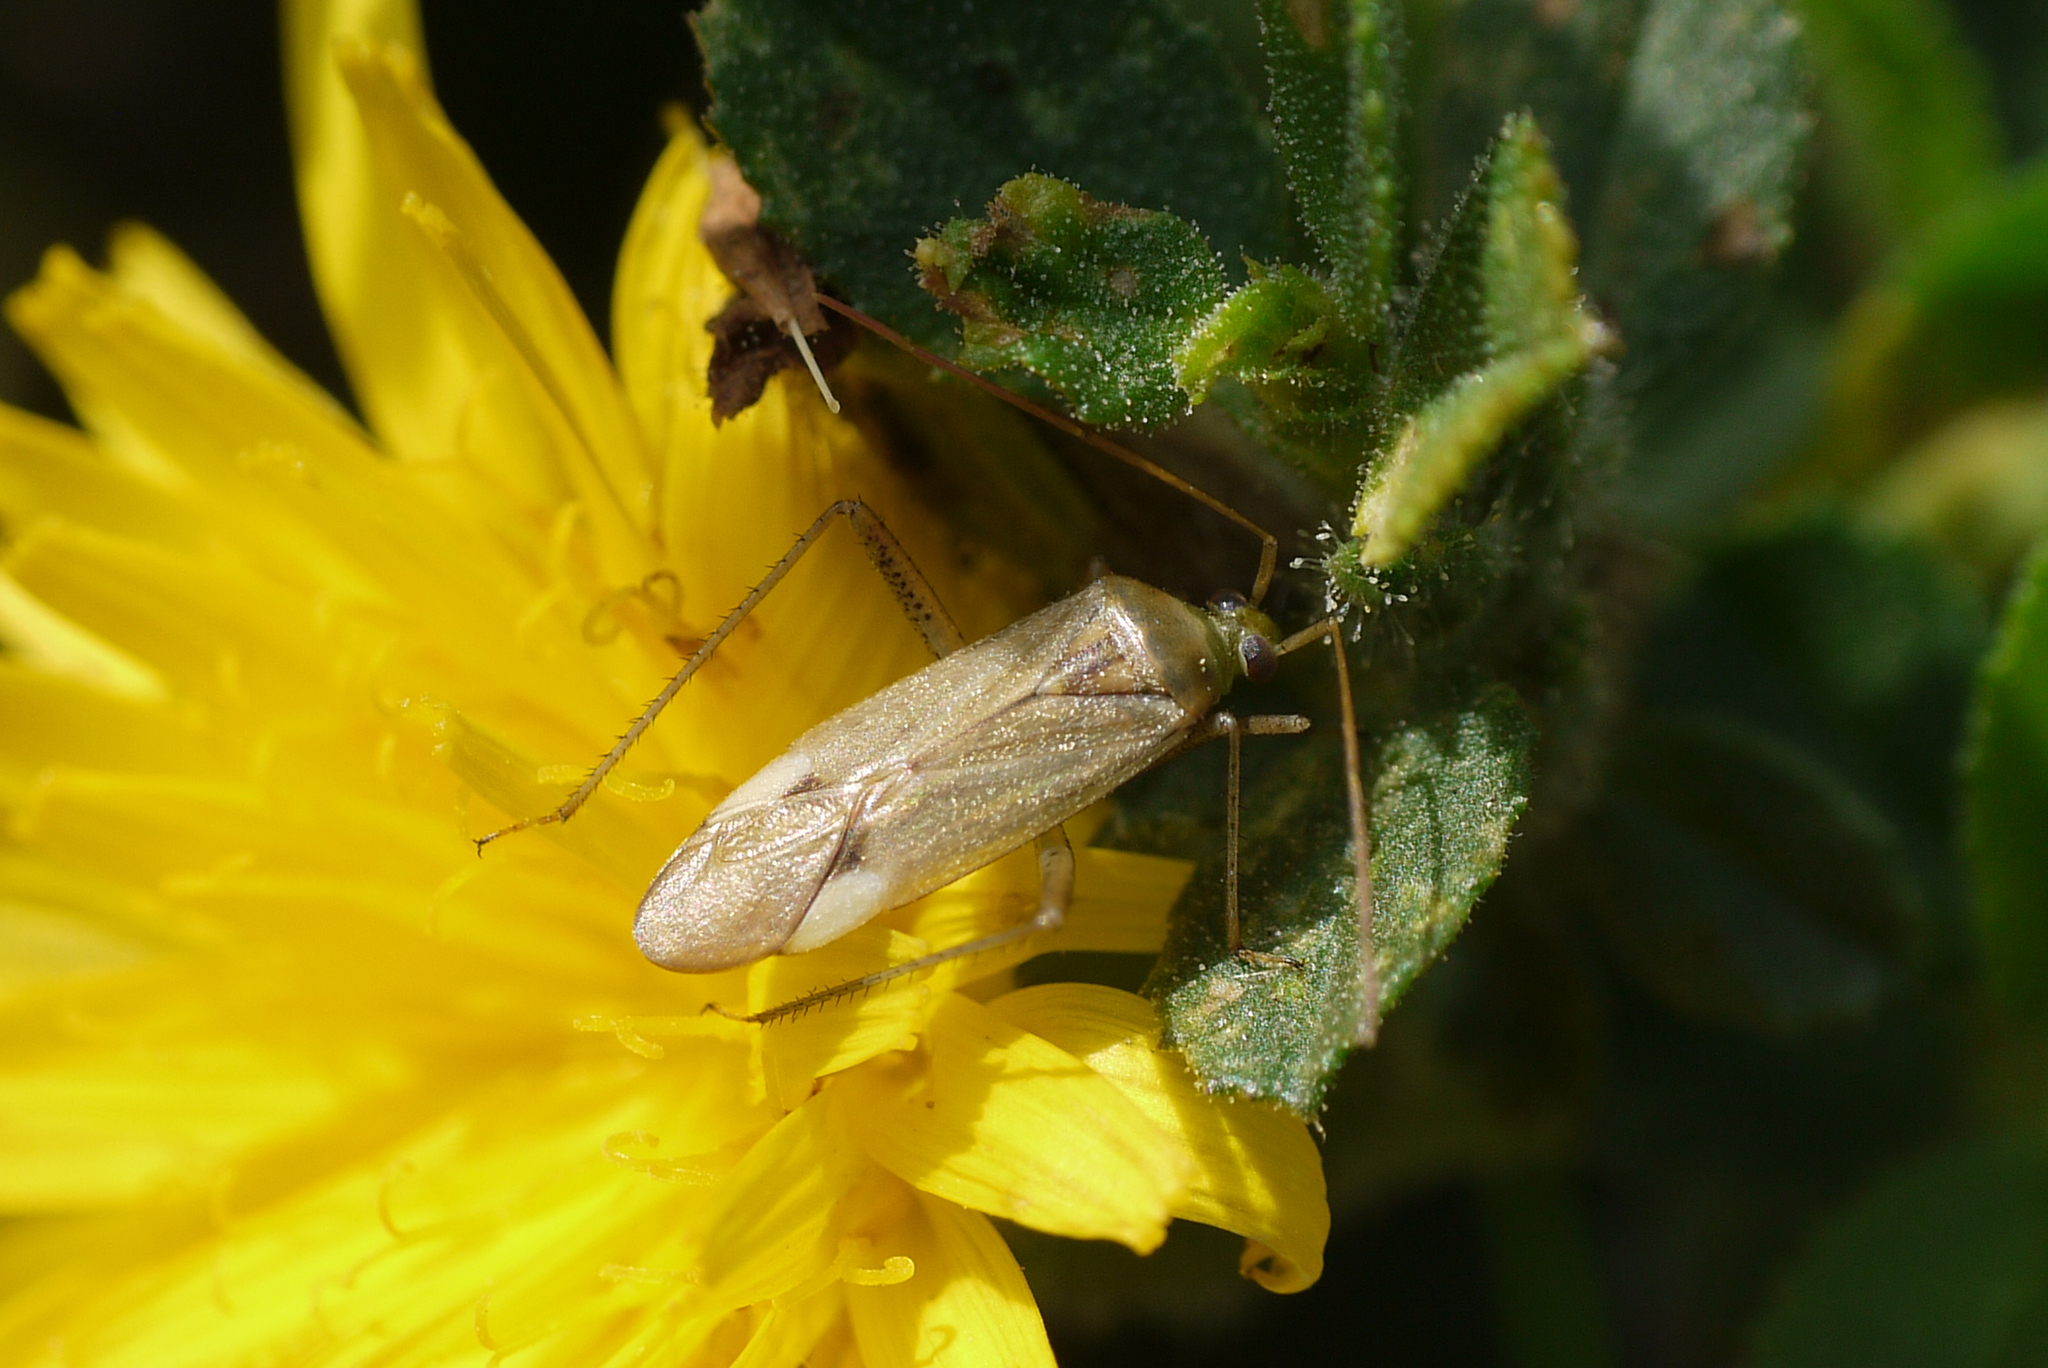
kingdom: Animalia
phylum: Arthropoda
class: Insecta
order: Hemiptera
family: Miridae
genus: Adelphocoris
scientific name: Adelphocoris lineolatus
